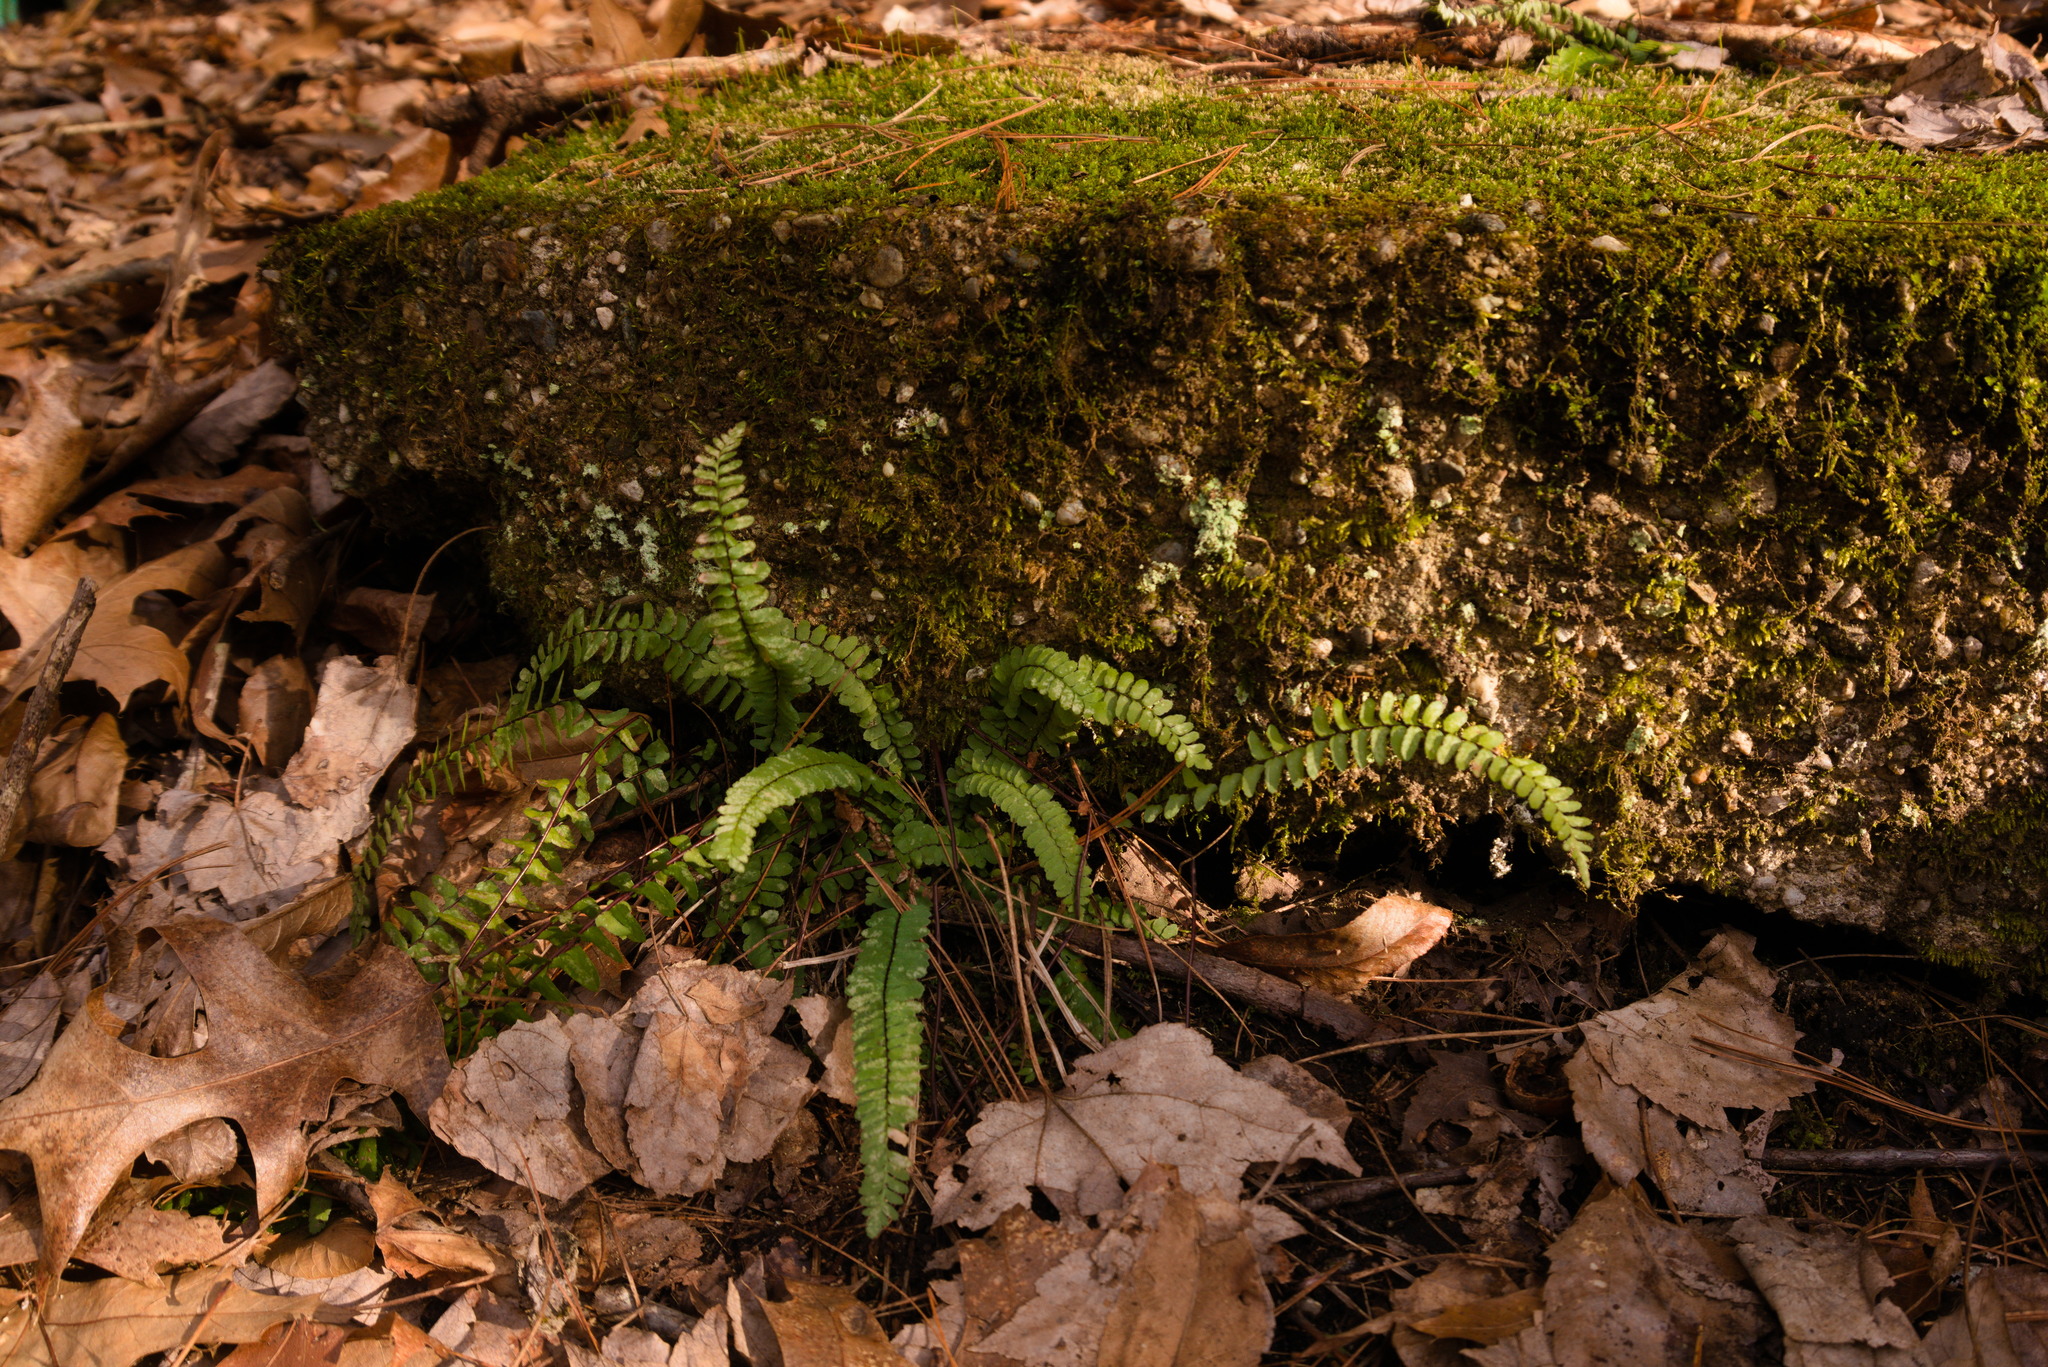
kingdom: Plantae
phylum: Tracheophyta
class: Polypodiopsida
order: Polypodiales
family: Aspleniaceae
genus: Asplenium
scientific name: Asplenium platyneuron
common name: Ebony spleenwort
